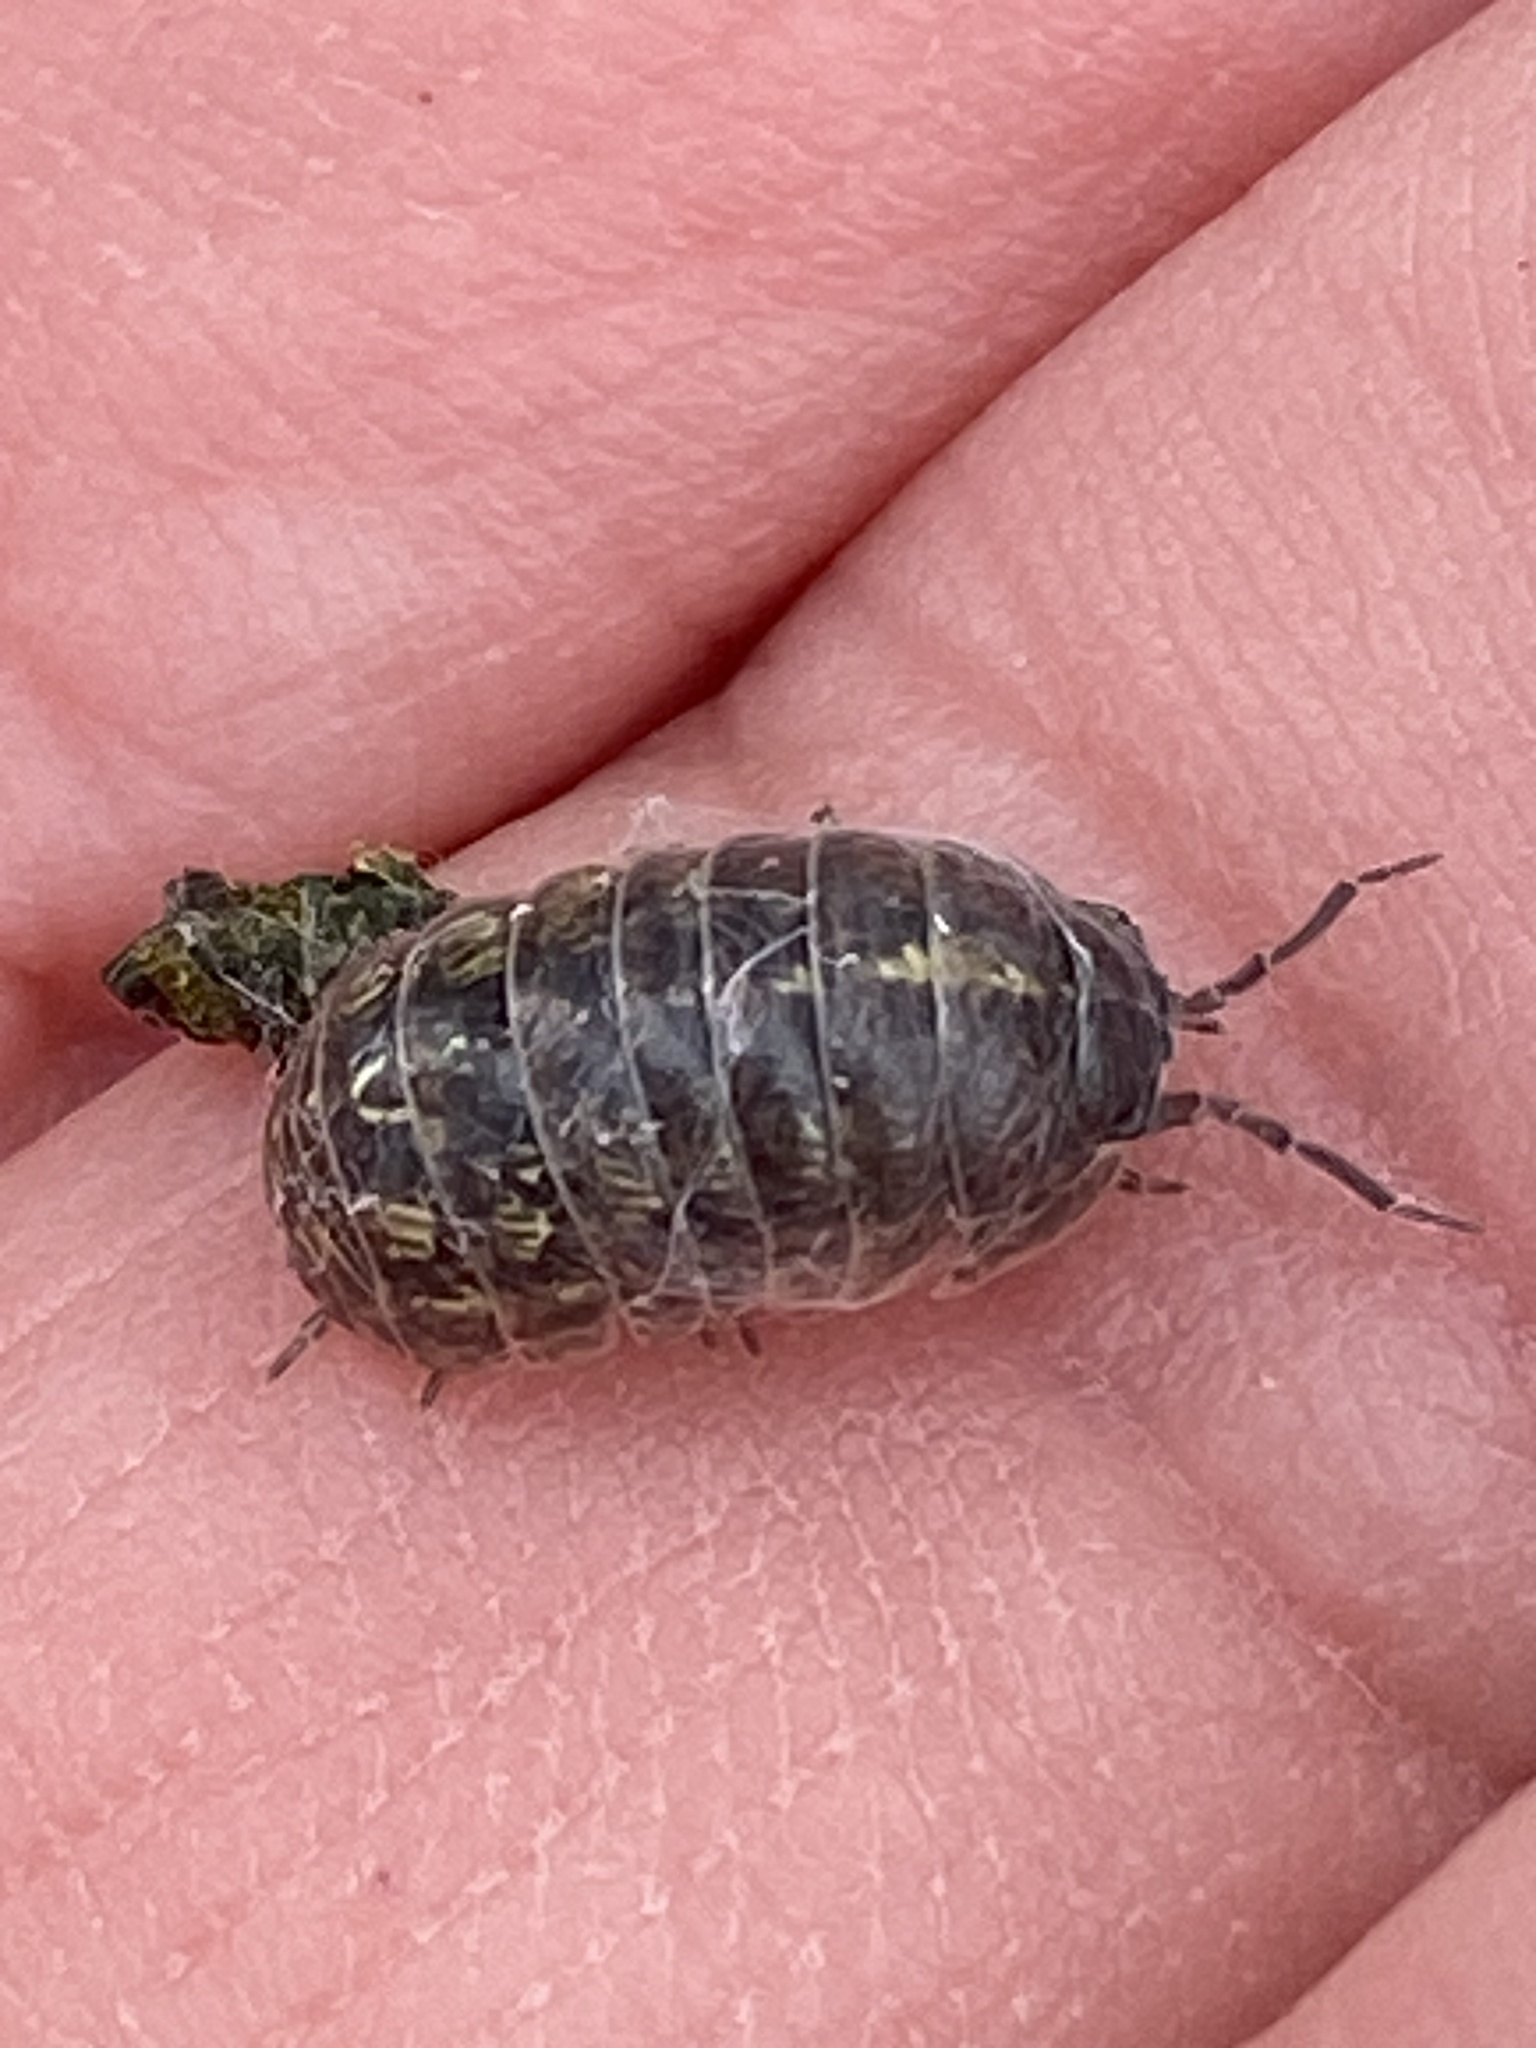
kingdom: Animalia
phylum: Arthropoda
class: Malacostraca
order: Isopoda
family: Armadillidiidae
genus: Armadillidium
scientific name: Armadillidium vulgare
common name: Common pill woodlouse
